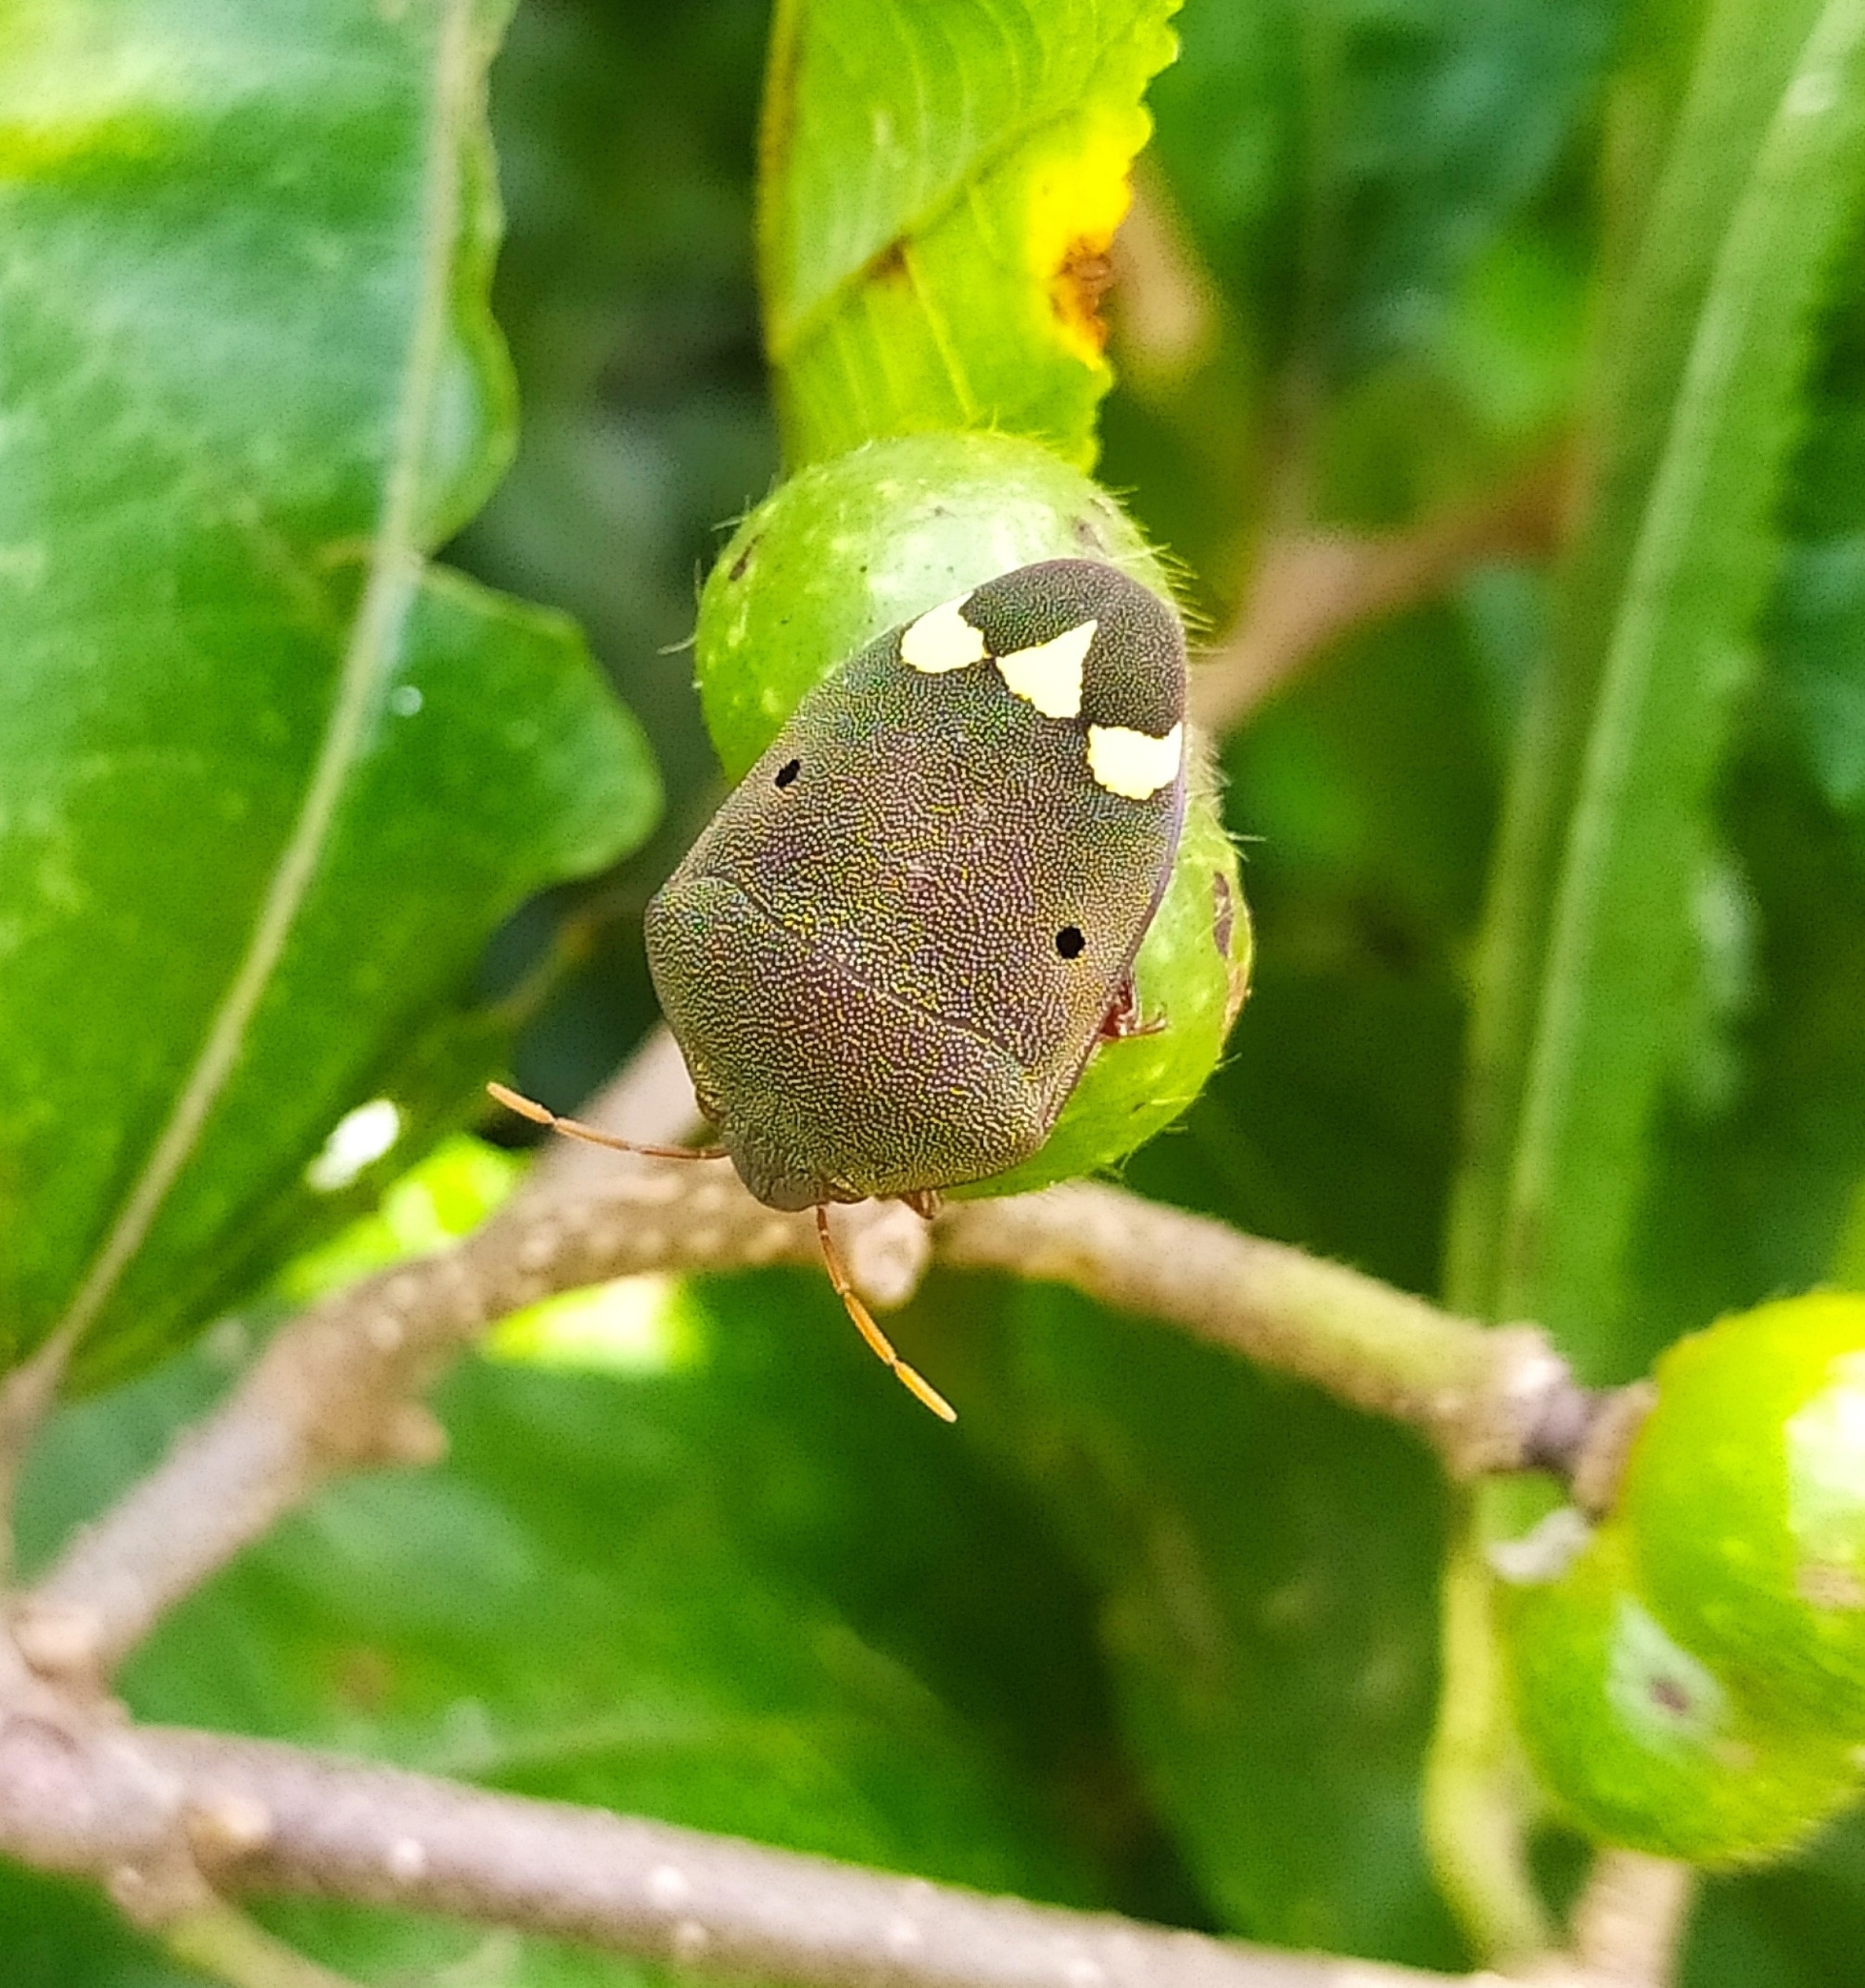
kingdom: Animalia
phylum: Arthropoda
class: Insecta
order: Hemiptera
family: Scutelleridae
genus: Solenosthedium
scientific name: Solenosthedium
